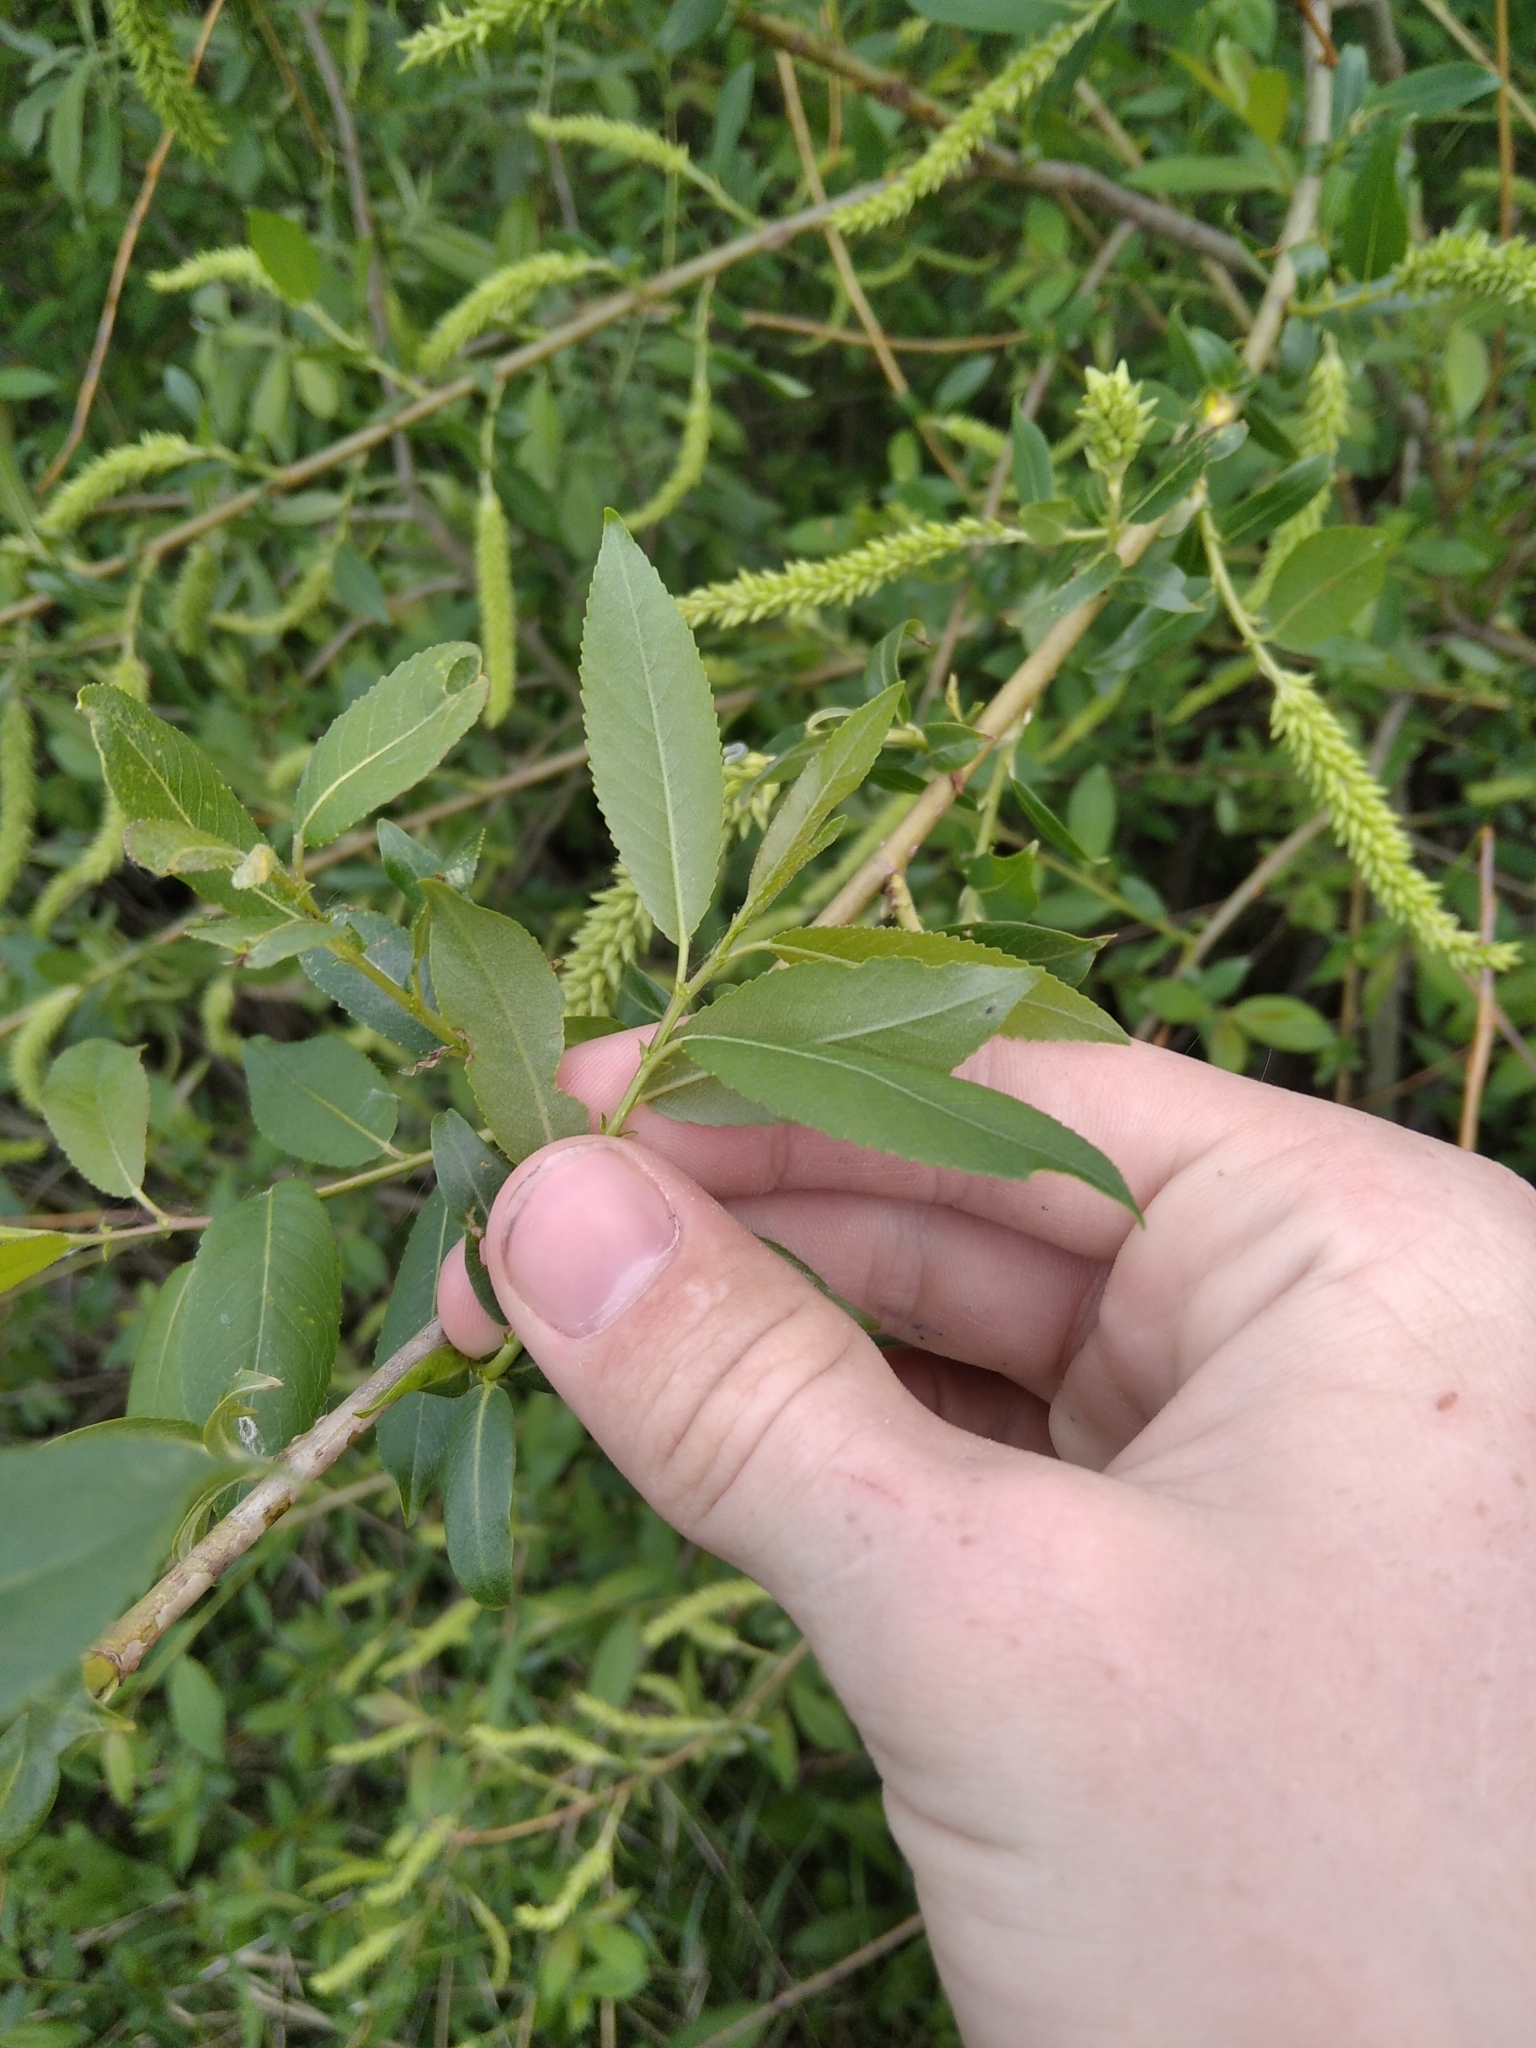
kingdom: Plantae
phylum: Tracheophyta
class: Magnoliopsida
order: Malpighiales
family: Salicaceae
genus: Salix
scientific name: Salix triandra
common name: Almond willow
